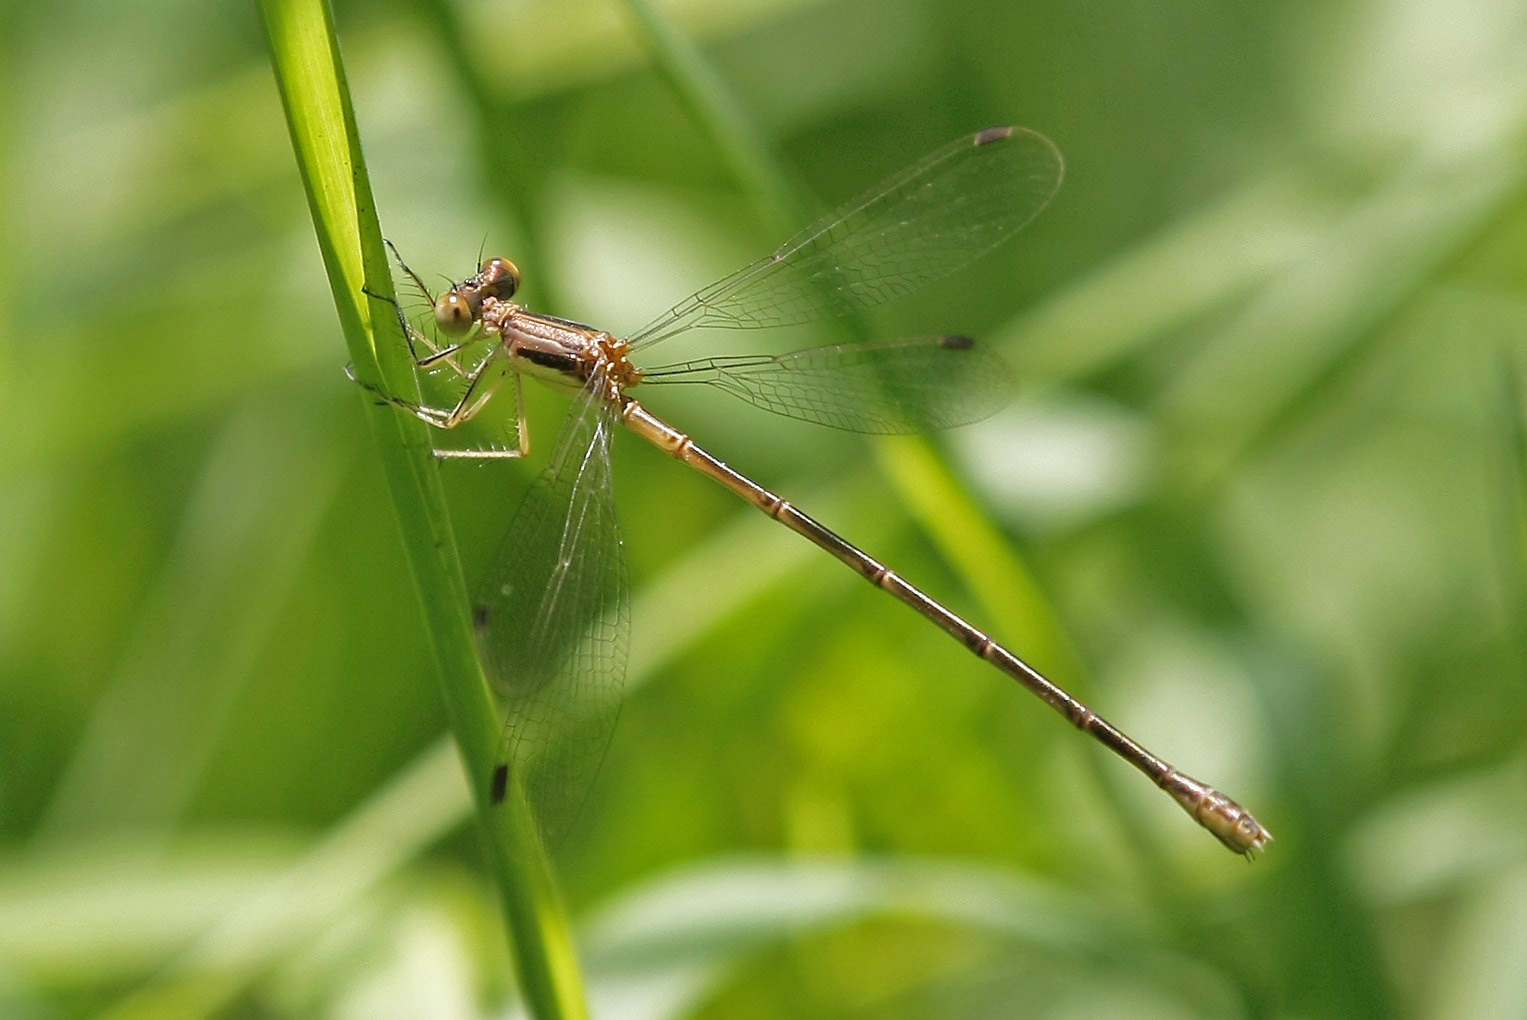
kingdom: Animalia
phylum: Arthropoda
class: Insecta
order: Odonata
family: Lestidae
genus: Lestes
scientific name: Lestes rectangularis
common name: Slender spreadwing
